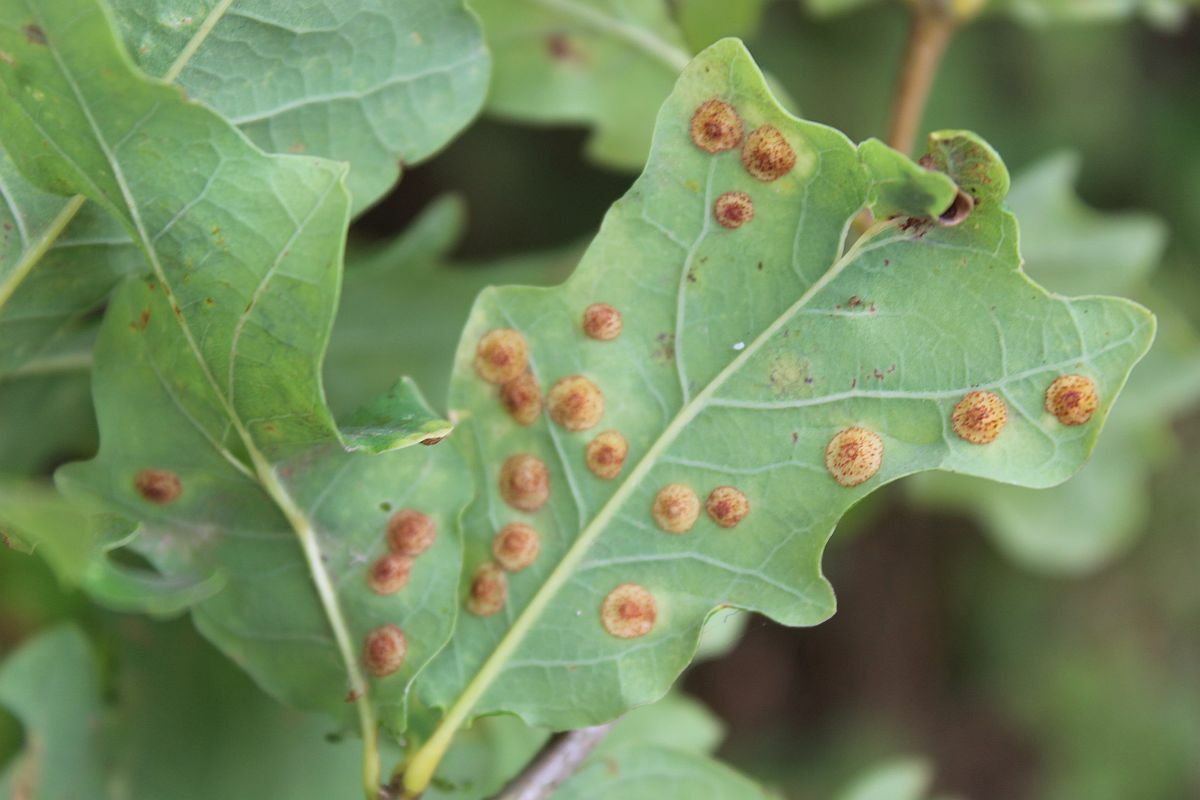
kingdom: Animalia
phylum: Arthropoda
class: Insecta
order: Hymenoptera
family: Cynipidae
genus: Neuroterus
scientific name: Neuroterus quercusbaccarum
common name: Common spangle gall
